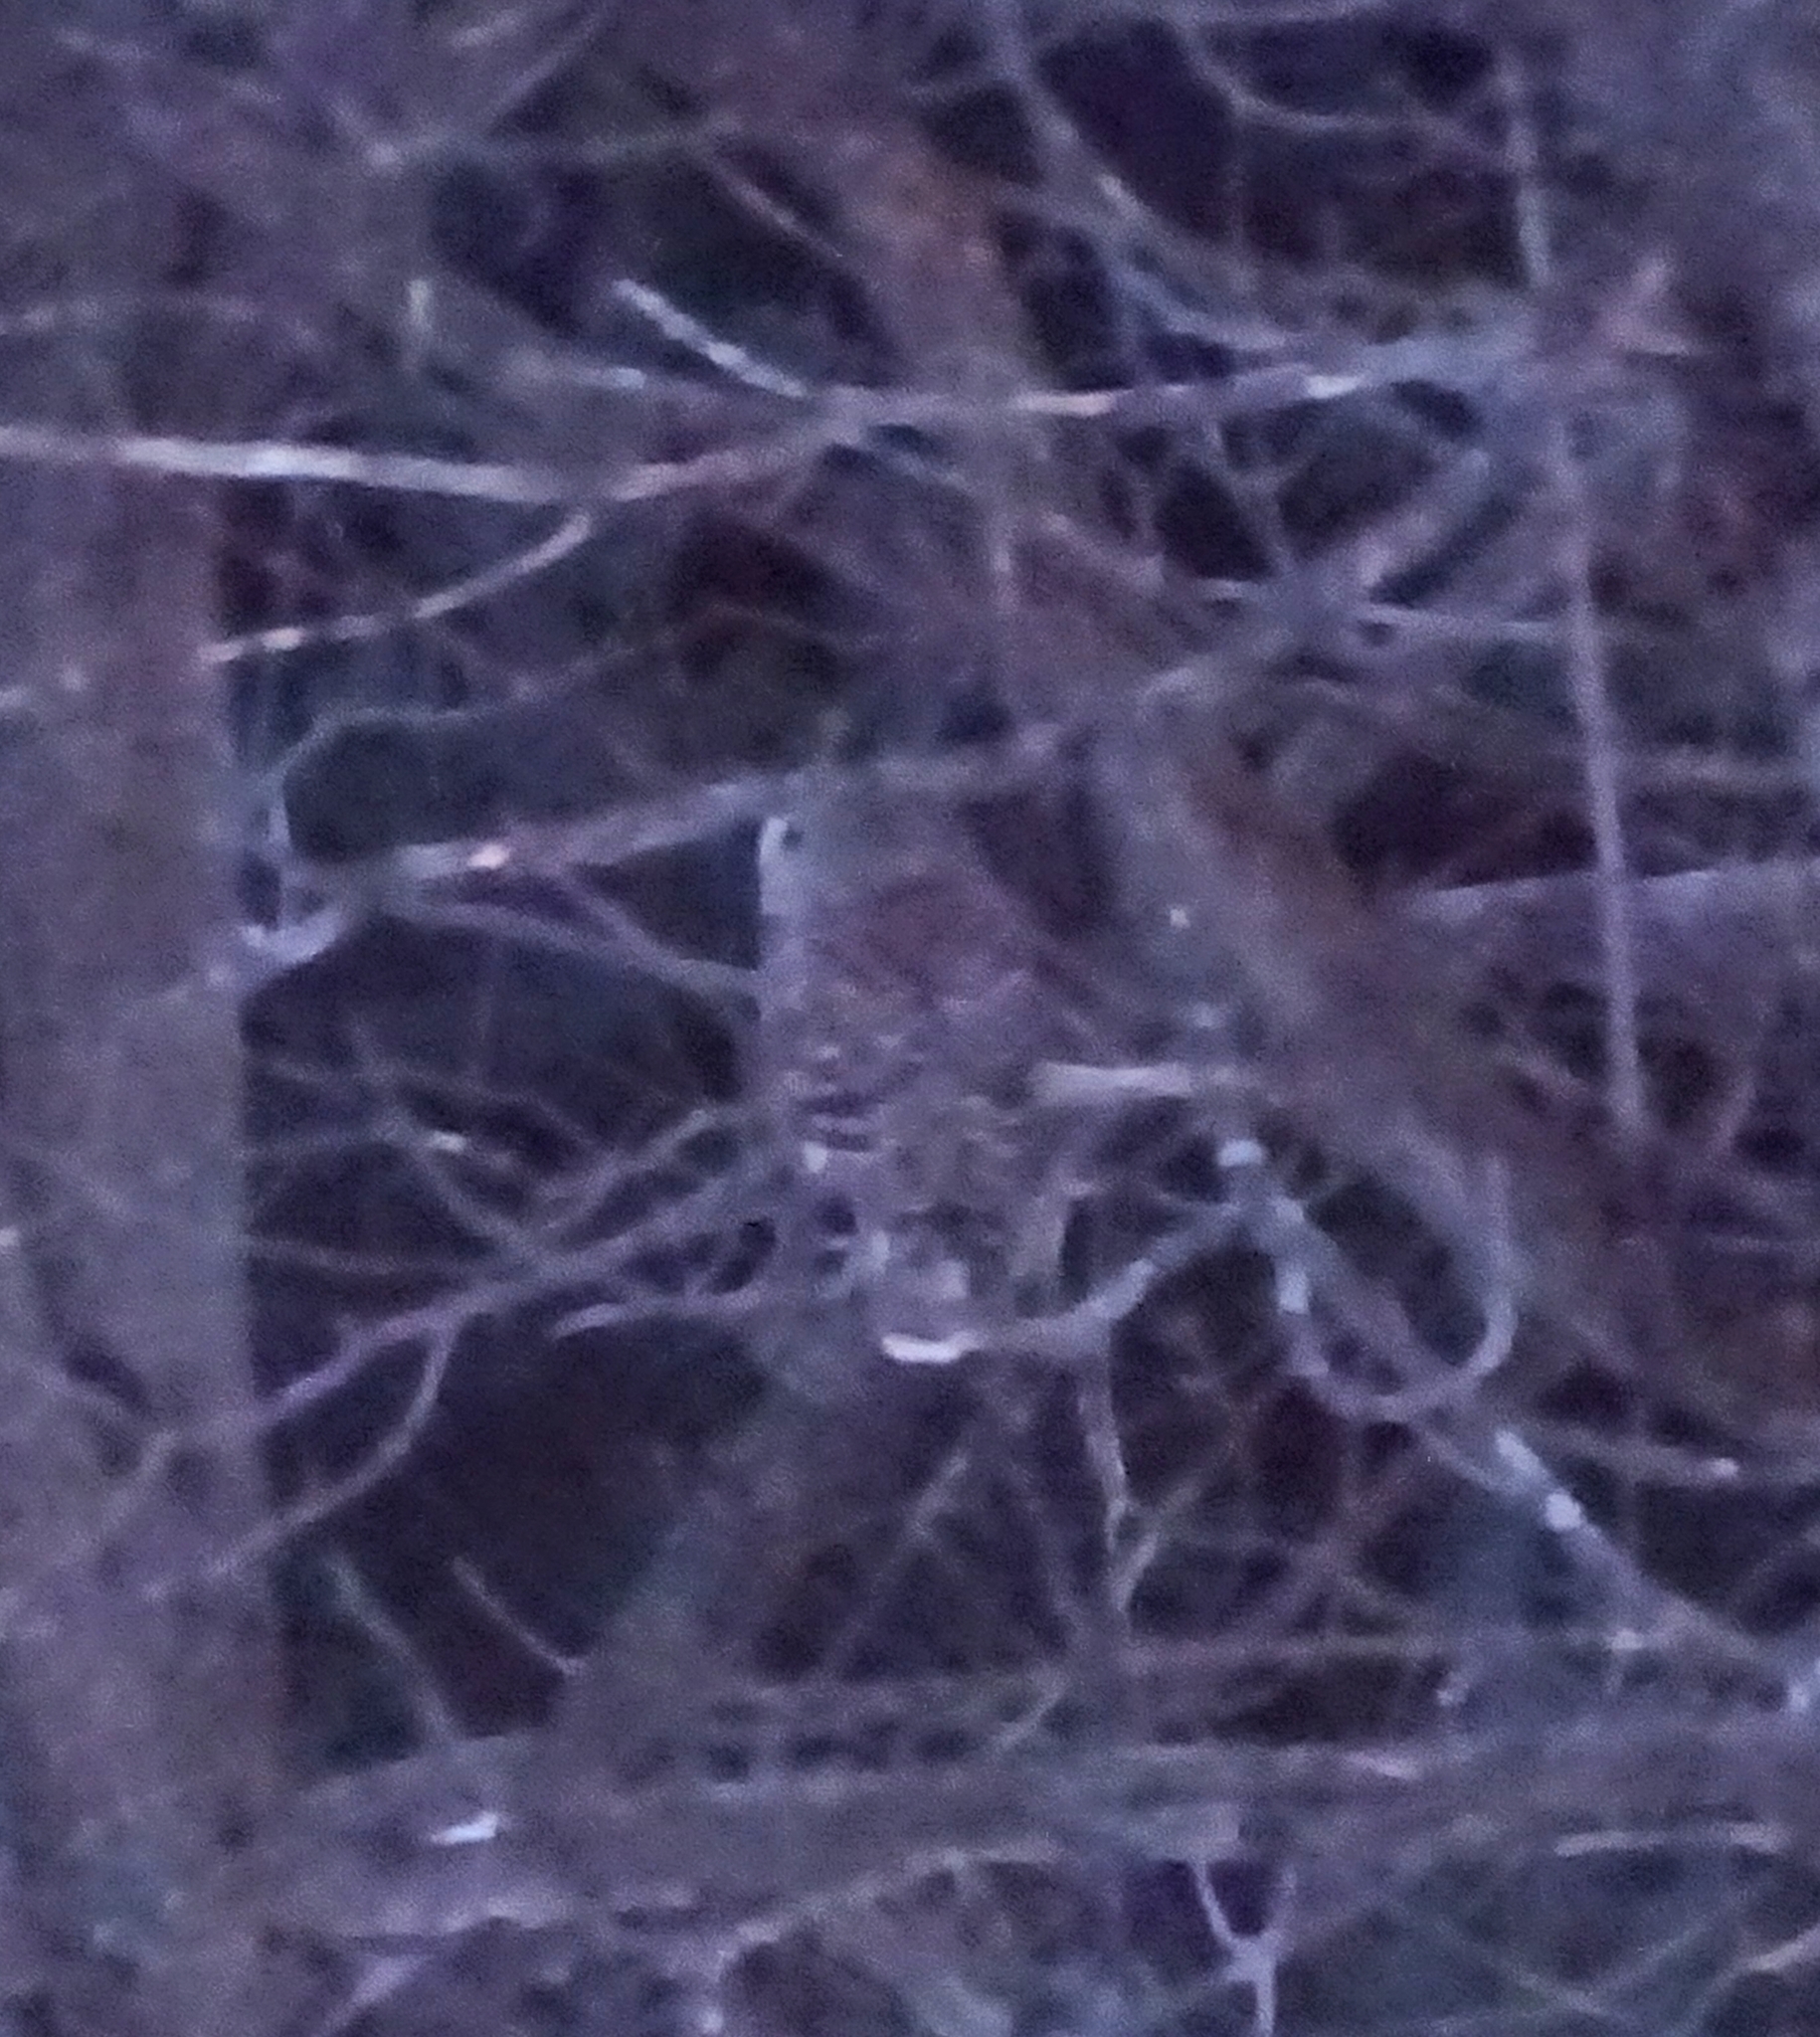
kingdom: Animalia
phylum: Chordata
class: Aves
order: Strigiformes
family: Strigidae
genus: Strix
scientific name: Strix varia
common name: Barred owl
